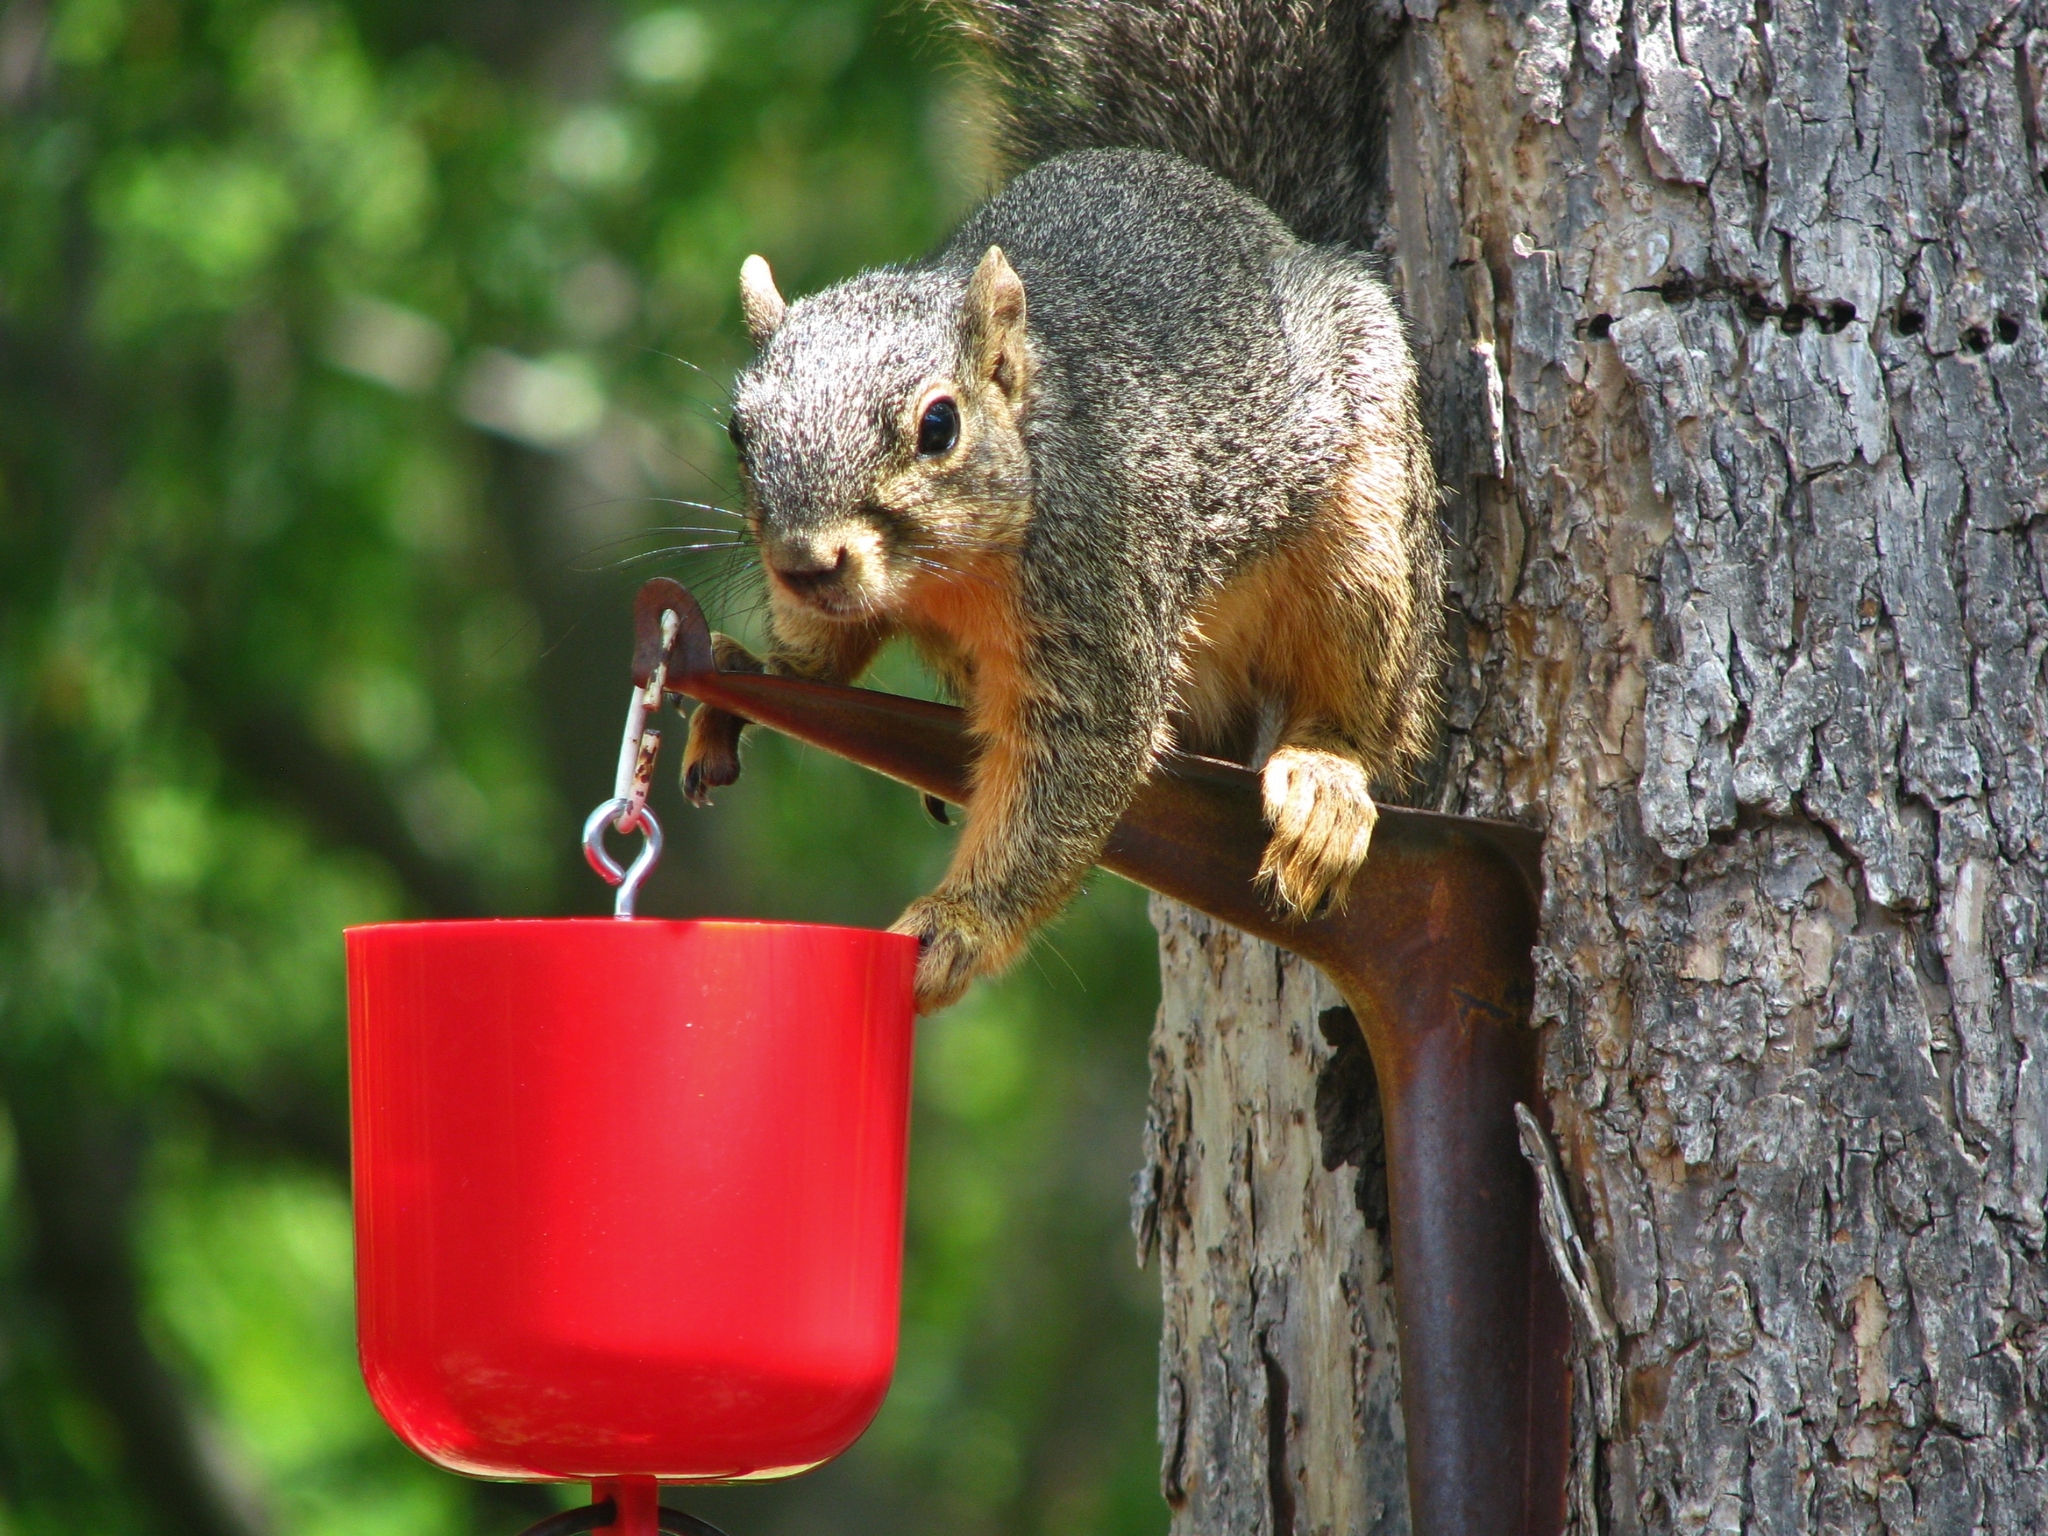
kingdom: Animalia
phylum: Chordata
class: Mammalia
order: Rodentia
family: Sciuridae
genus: Sciurus
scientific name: Sciurus niger
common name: Fox squirrel
